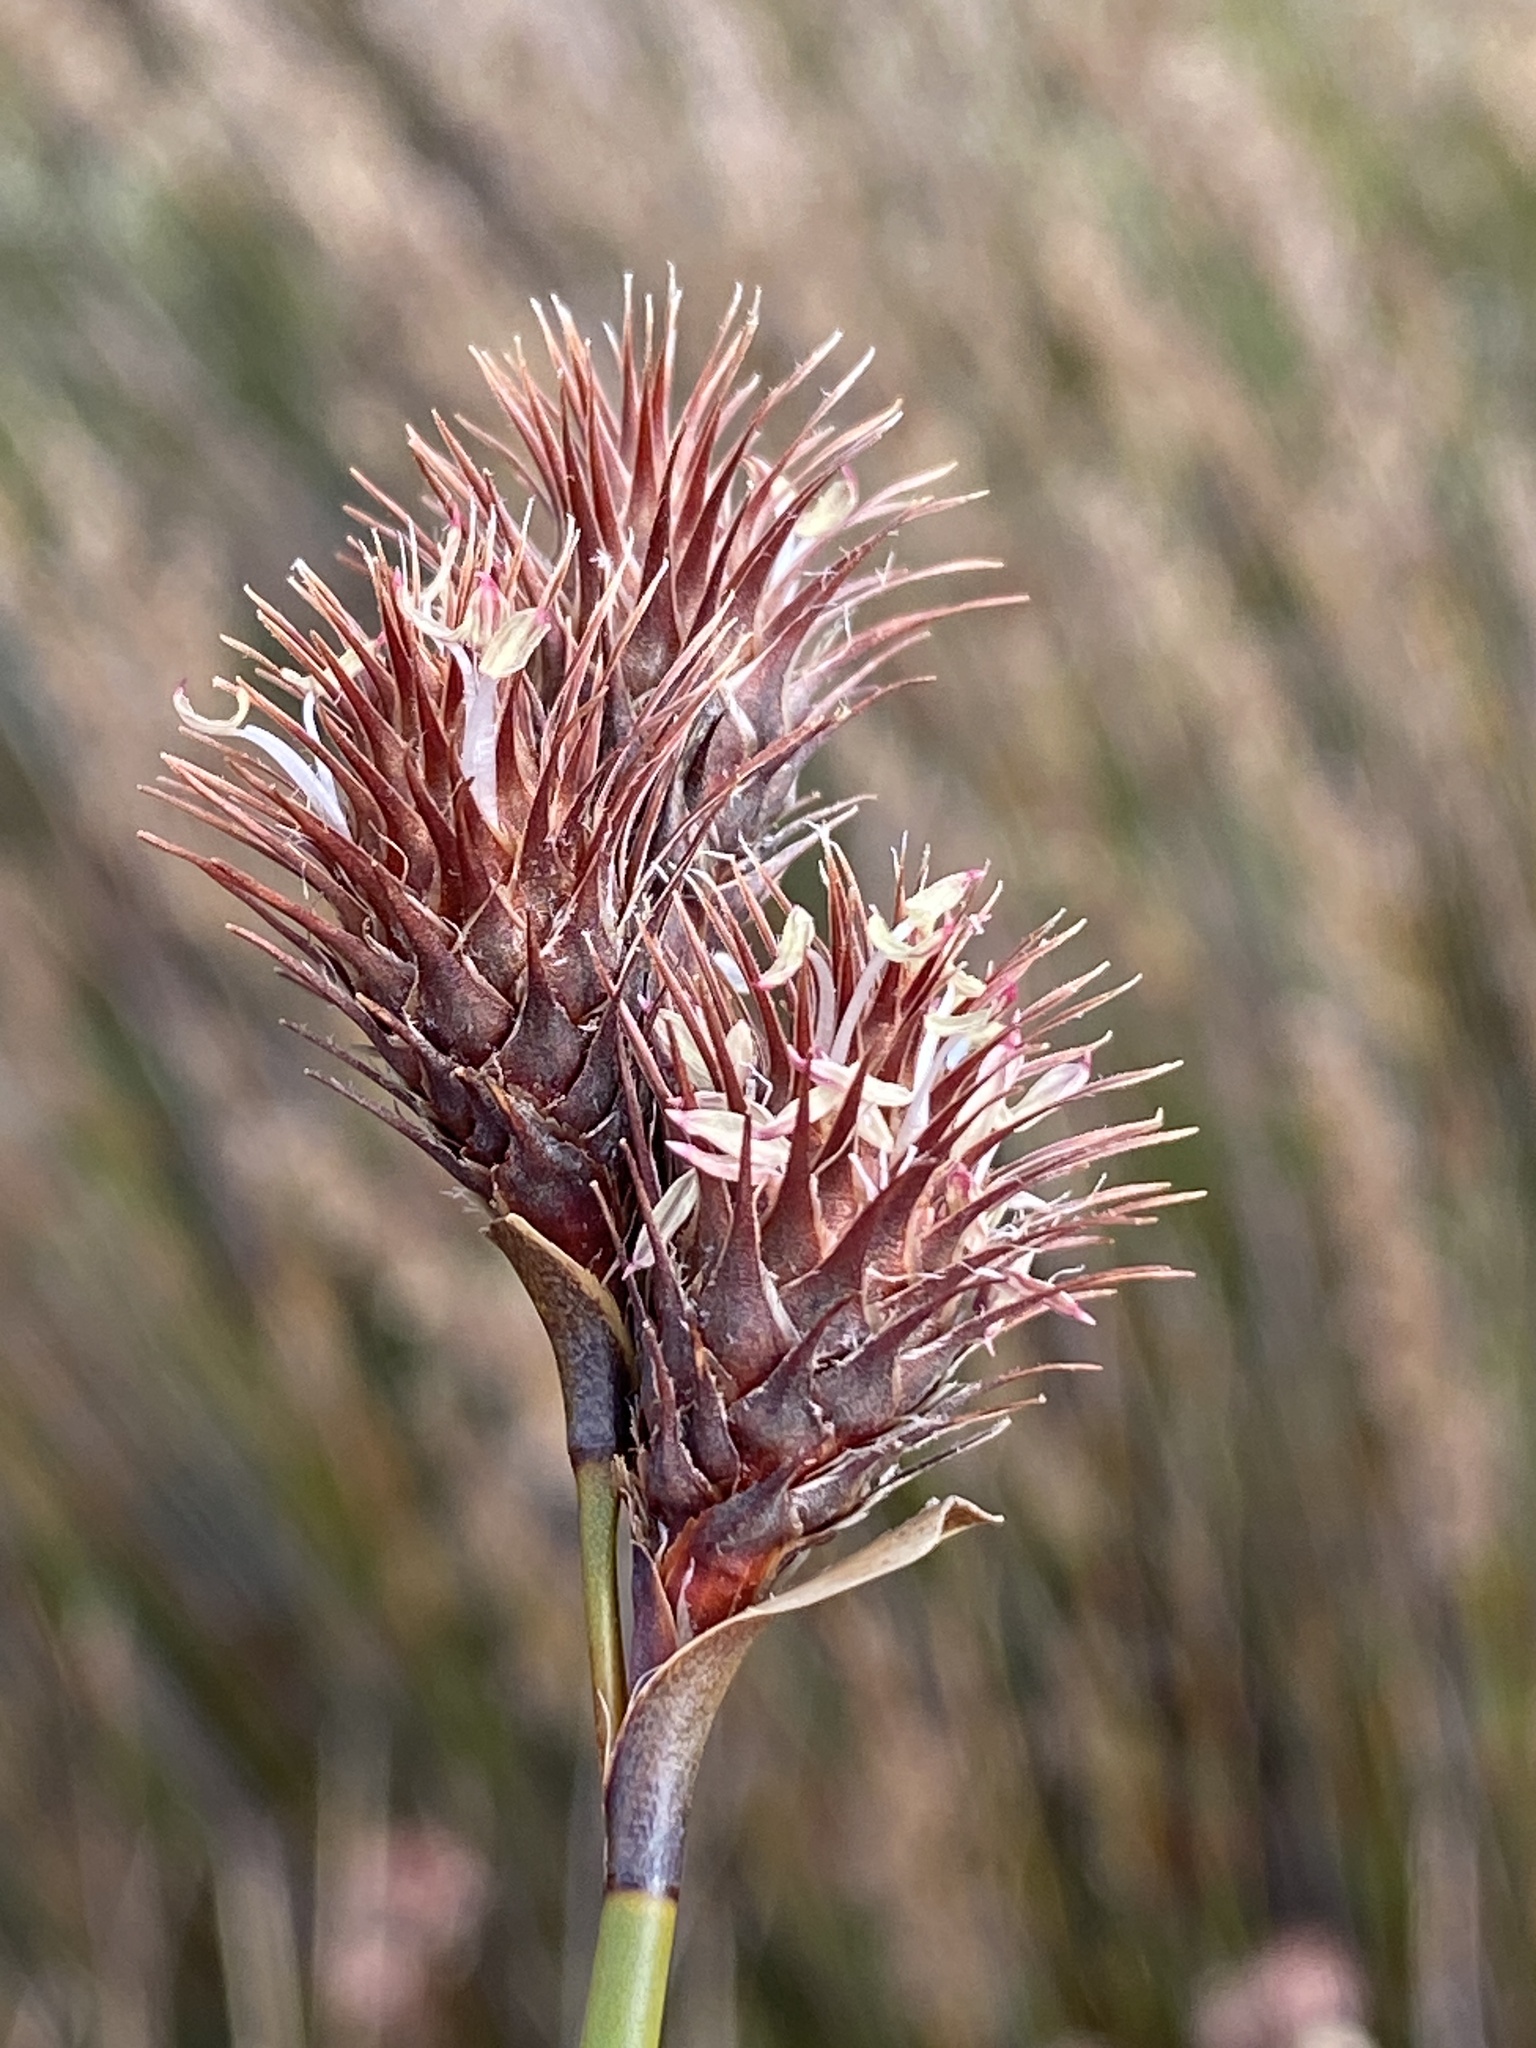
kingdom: Plantae
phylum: Tracheophyta
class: Liliopsida
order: Poales
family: Restionaceae
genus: Hypodiscus
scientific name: Hypodiscus aristatus
